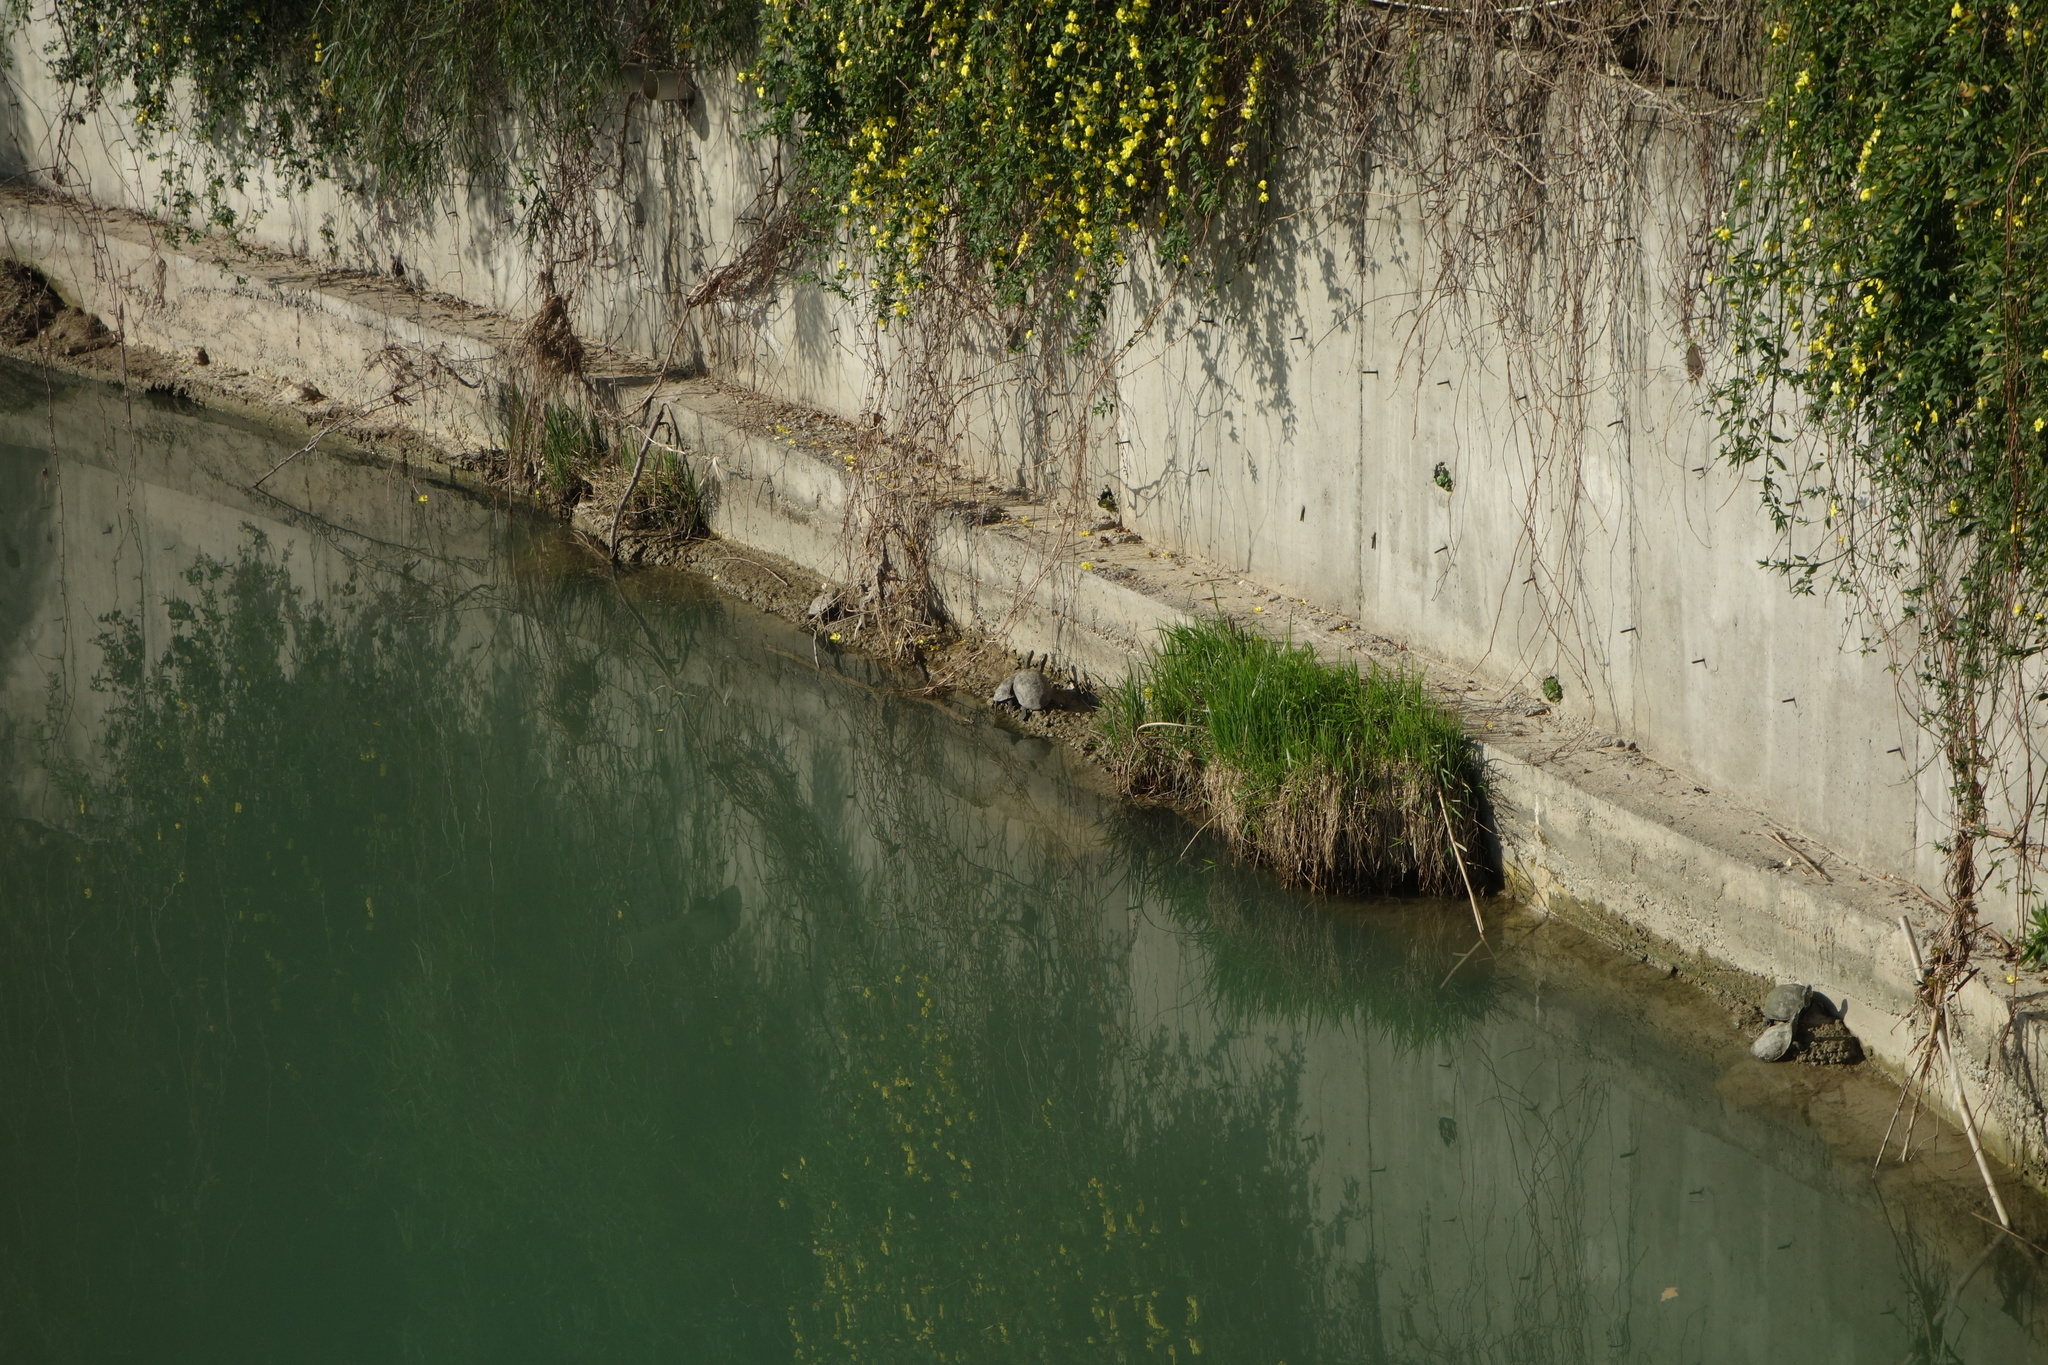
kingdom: Animalia
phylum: Chordata
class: Testudines
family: Geoemydidae
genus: Mauremys
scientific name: Mauremys rivulata
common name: Western caspian turtle
